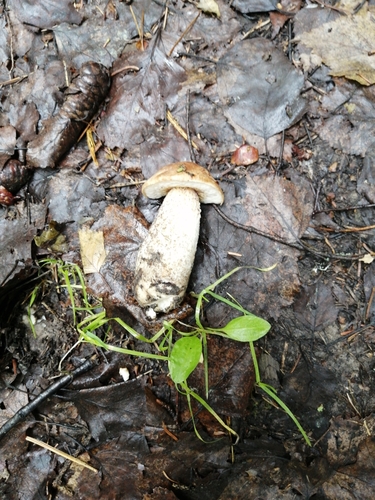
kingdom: Fungi
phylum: Basidiomycota
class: Agaricomycetes
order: Boletales
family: Boletaceae
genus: Leccinum
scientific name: Leccinum scabrum
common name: Blushing bolete
